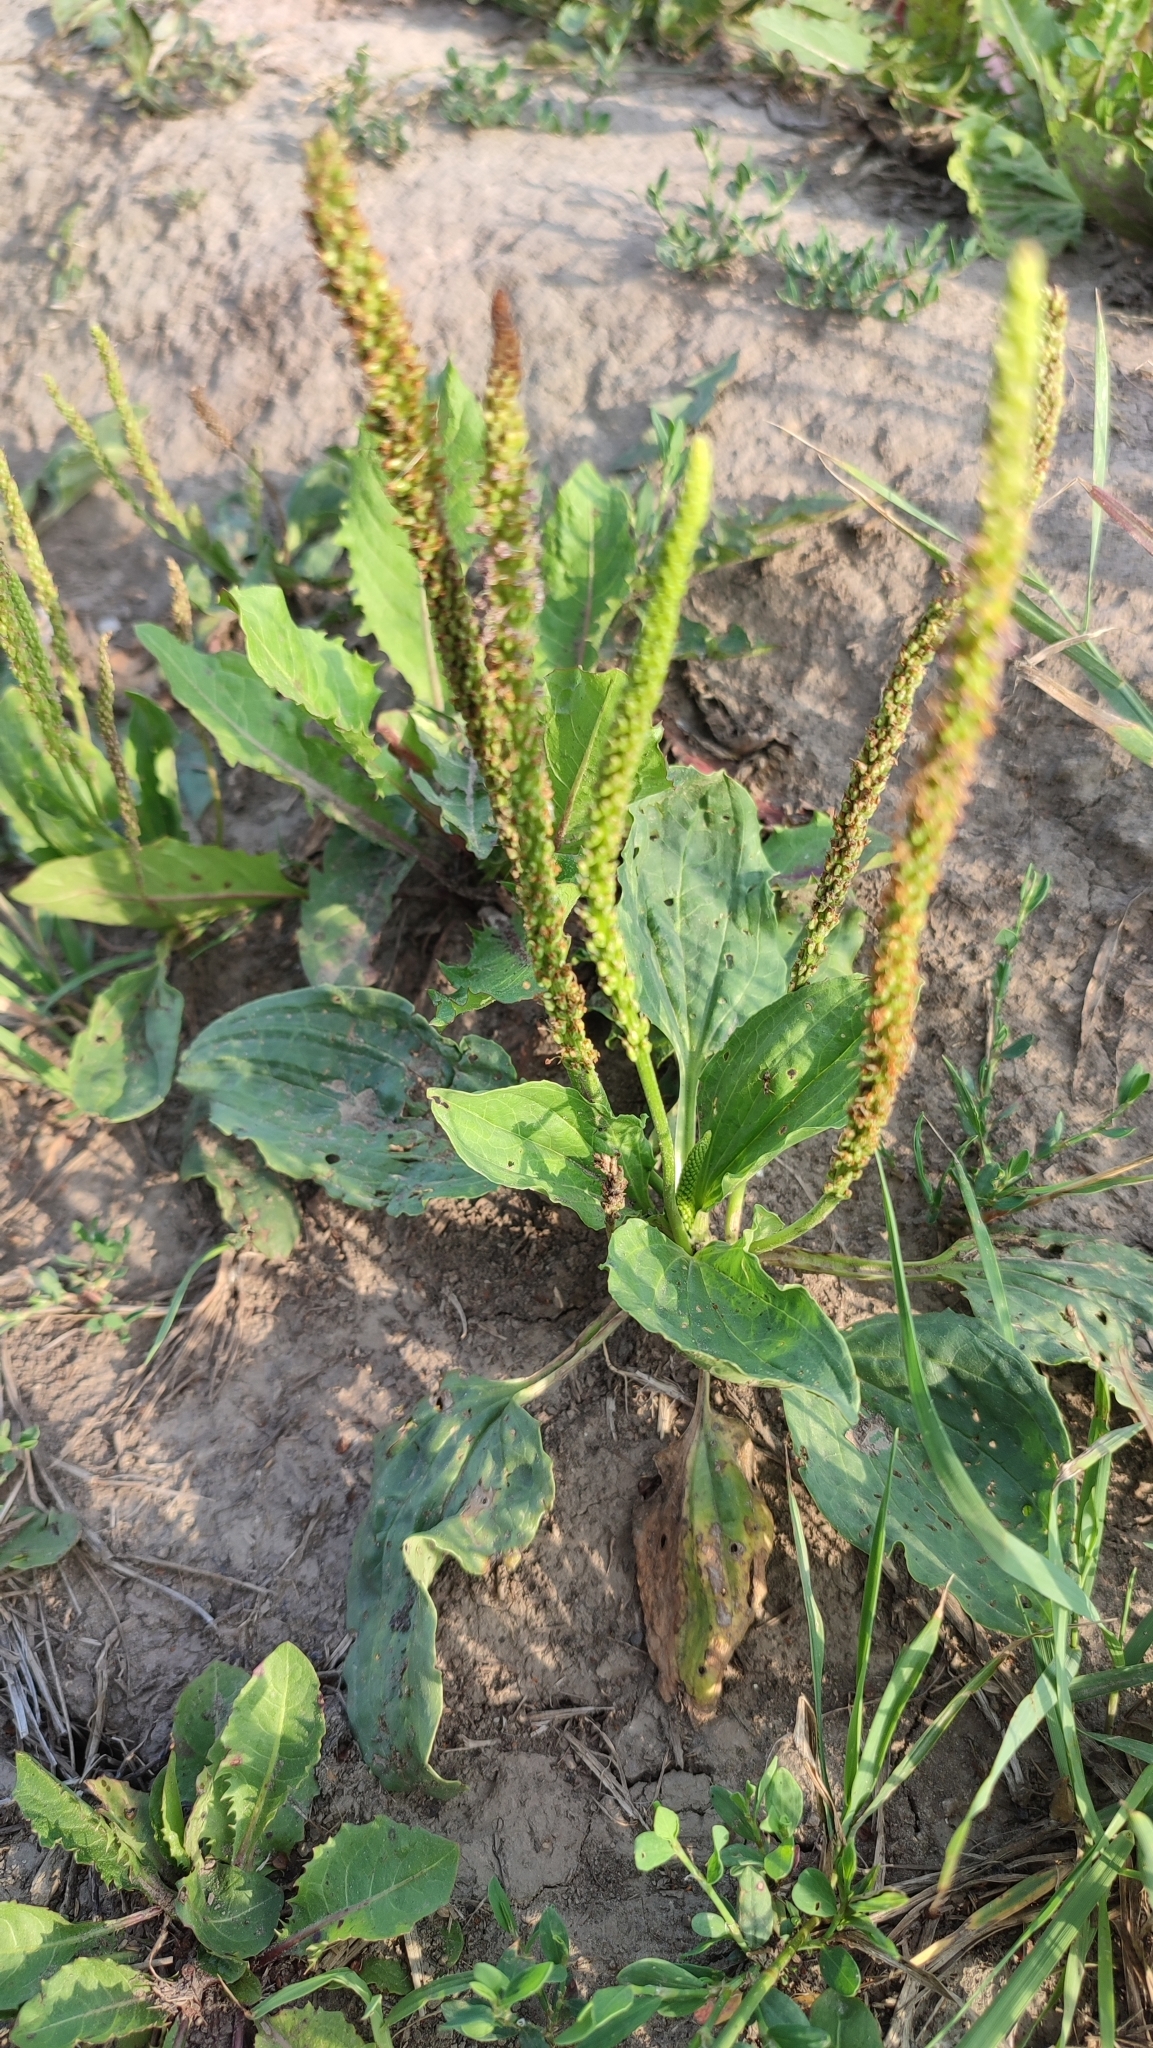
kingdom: Plantae
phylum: Tracheophyta
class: Magnoliopsida
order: Lamiales
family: Plantaginaceae
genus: Plantago
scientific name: Plantago major
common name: Common plantain
